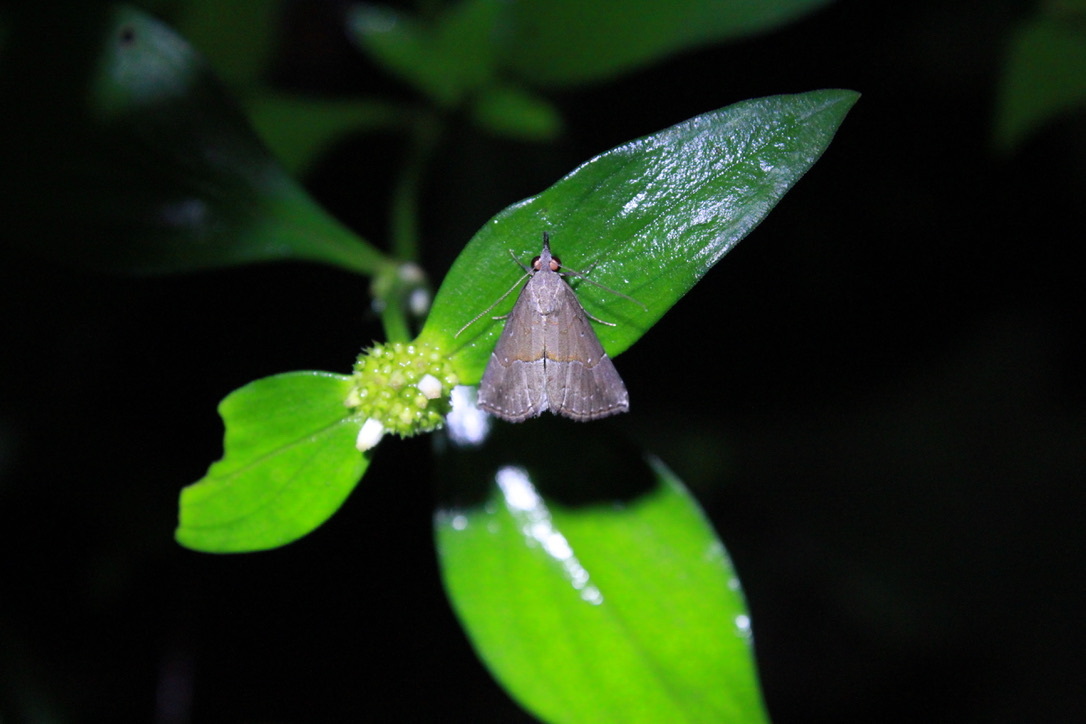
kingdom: Animalia
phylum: Arthropoda
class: Insecta
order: Lepidoptera
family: Erebidae
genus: Hypena
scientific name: Hypena porrectalis
